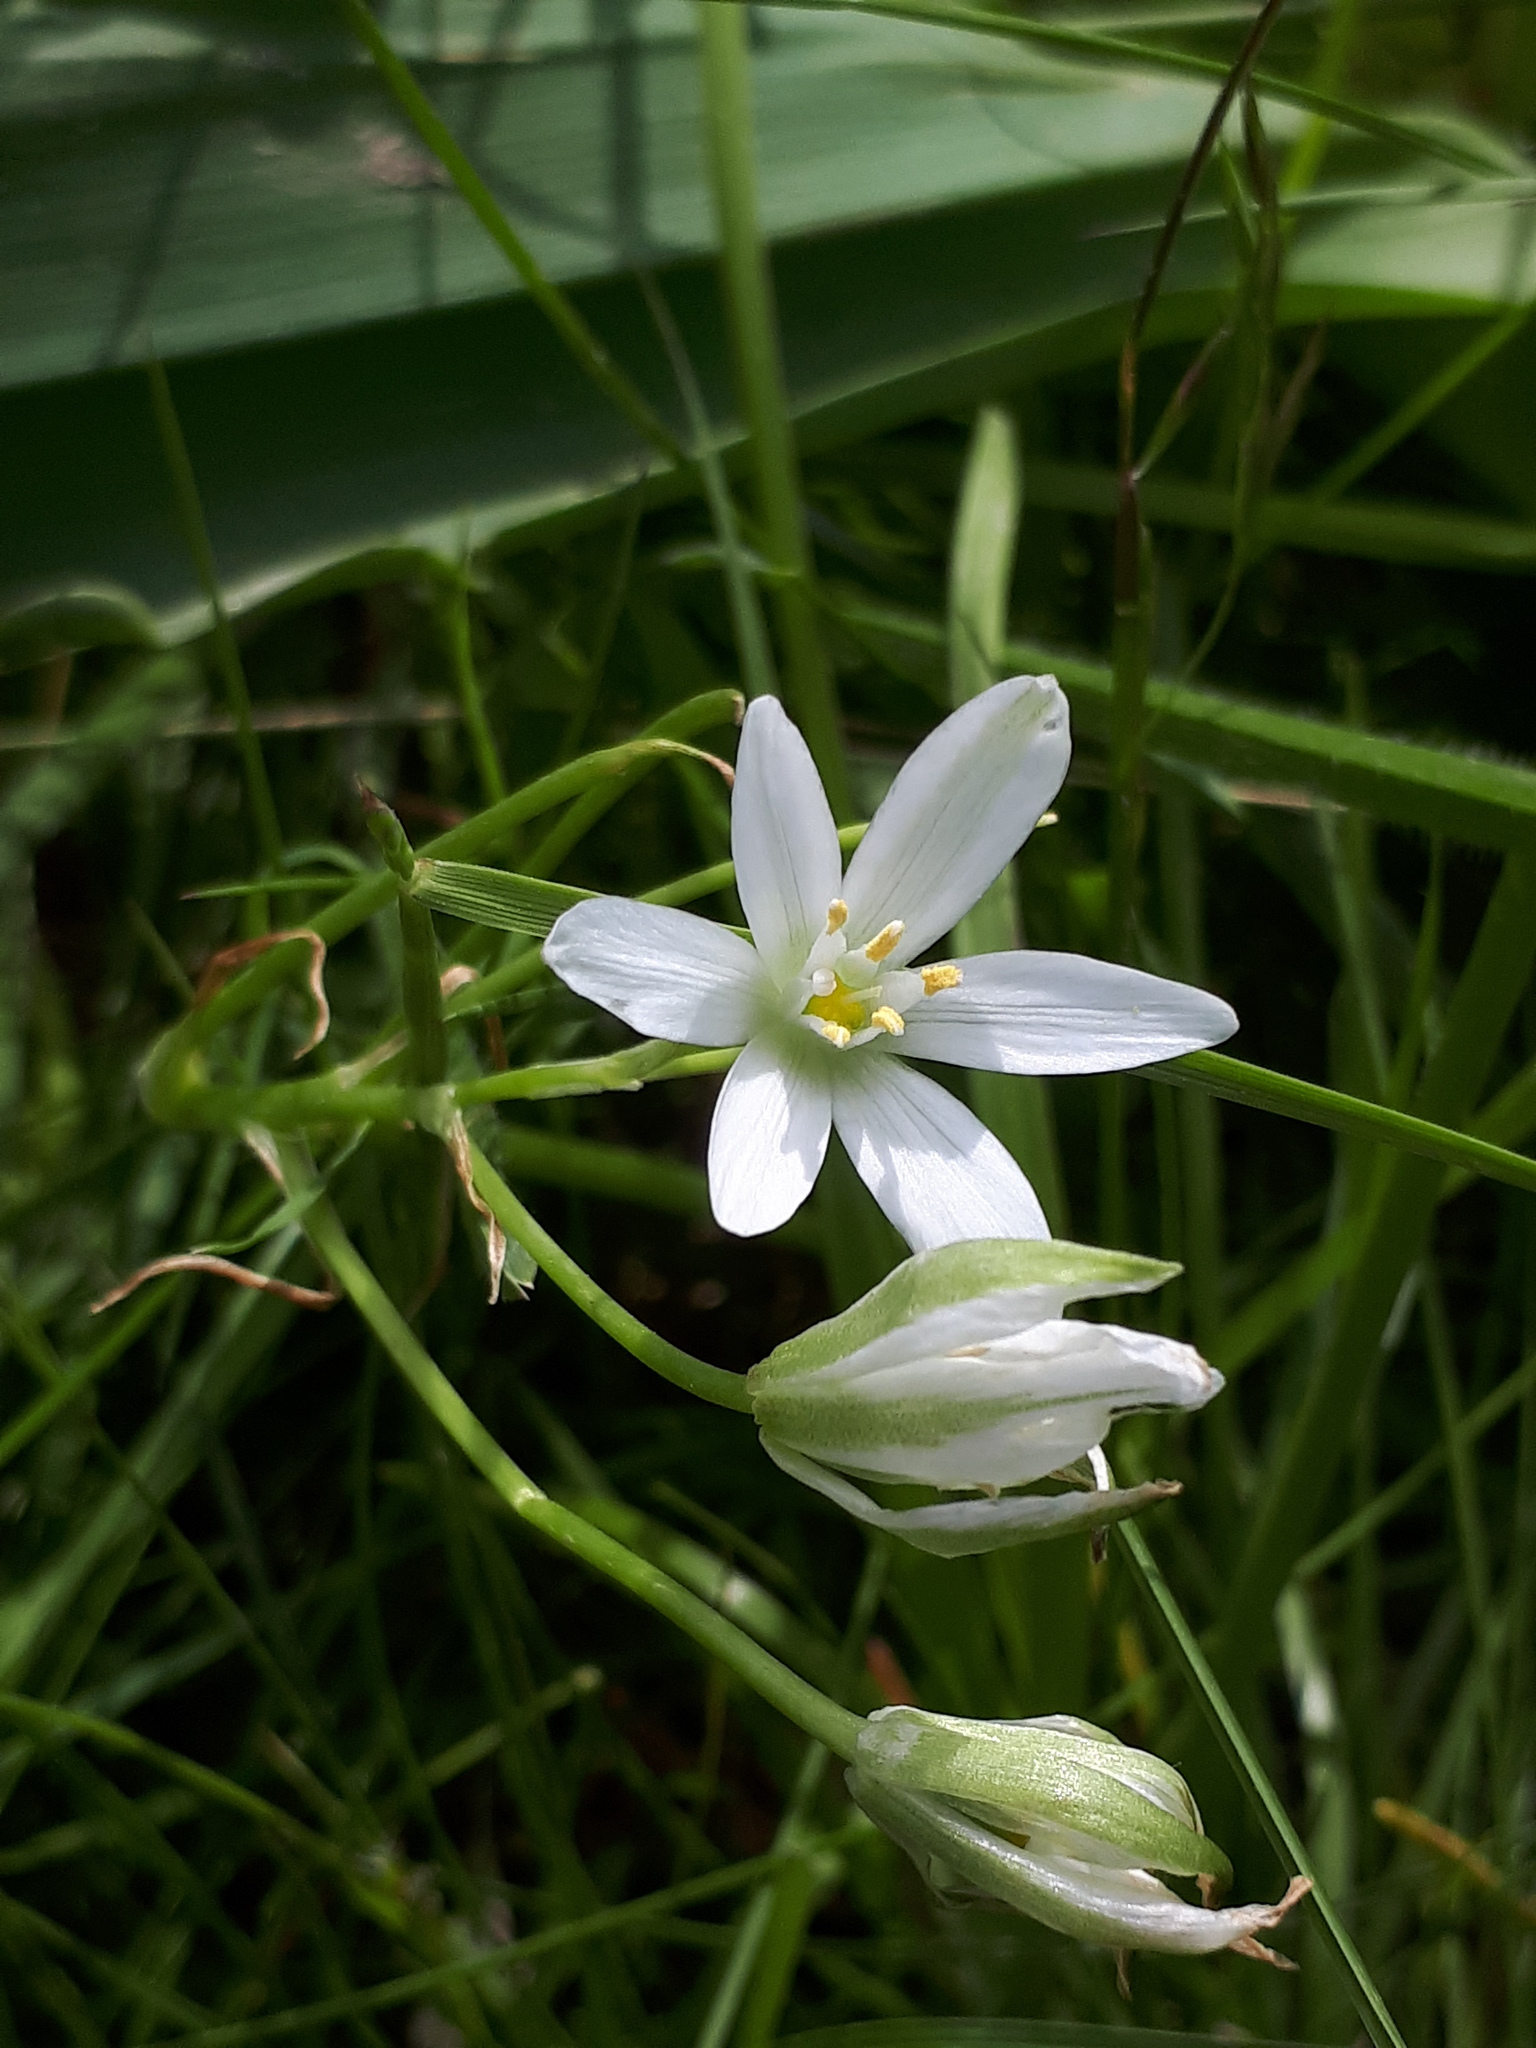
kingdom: Plantae
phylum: Tracheophyta
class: Liliopsida
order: Asparagales
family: Asparagaceae
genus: Ornithogalum
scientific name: Ornithogalum umbellatum
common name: Garden star-of-bethlehem
